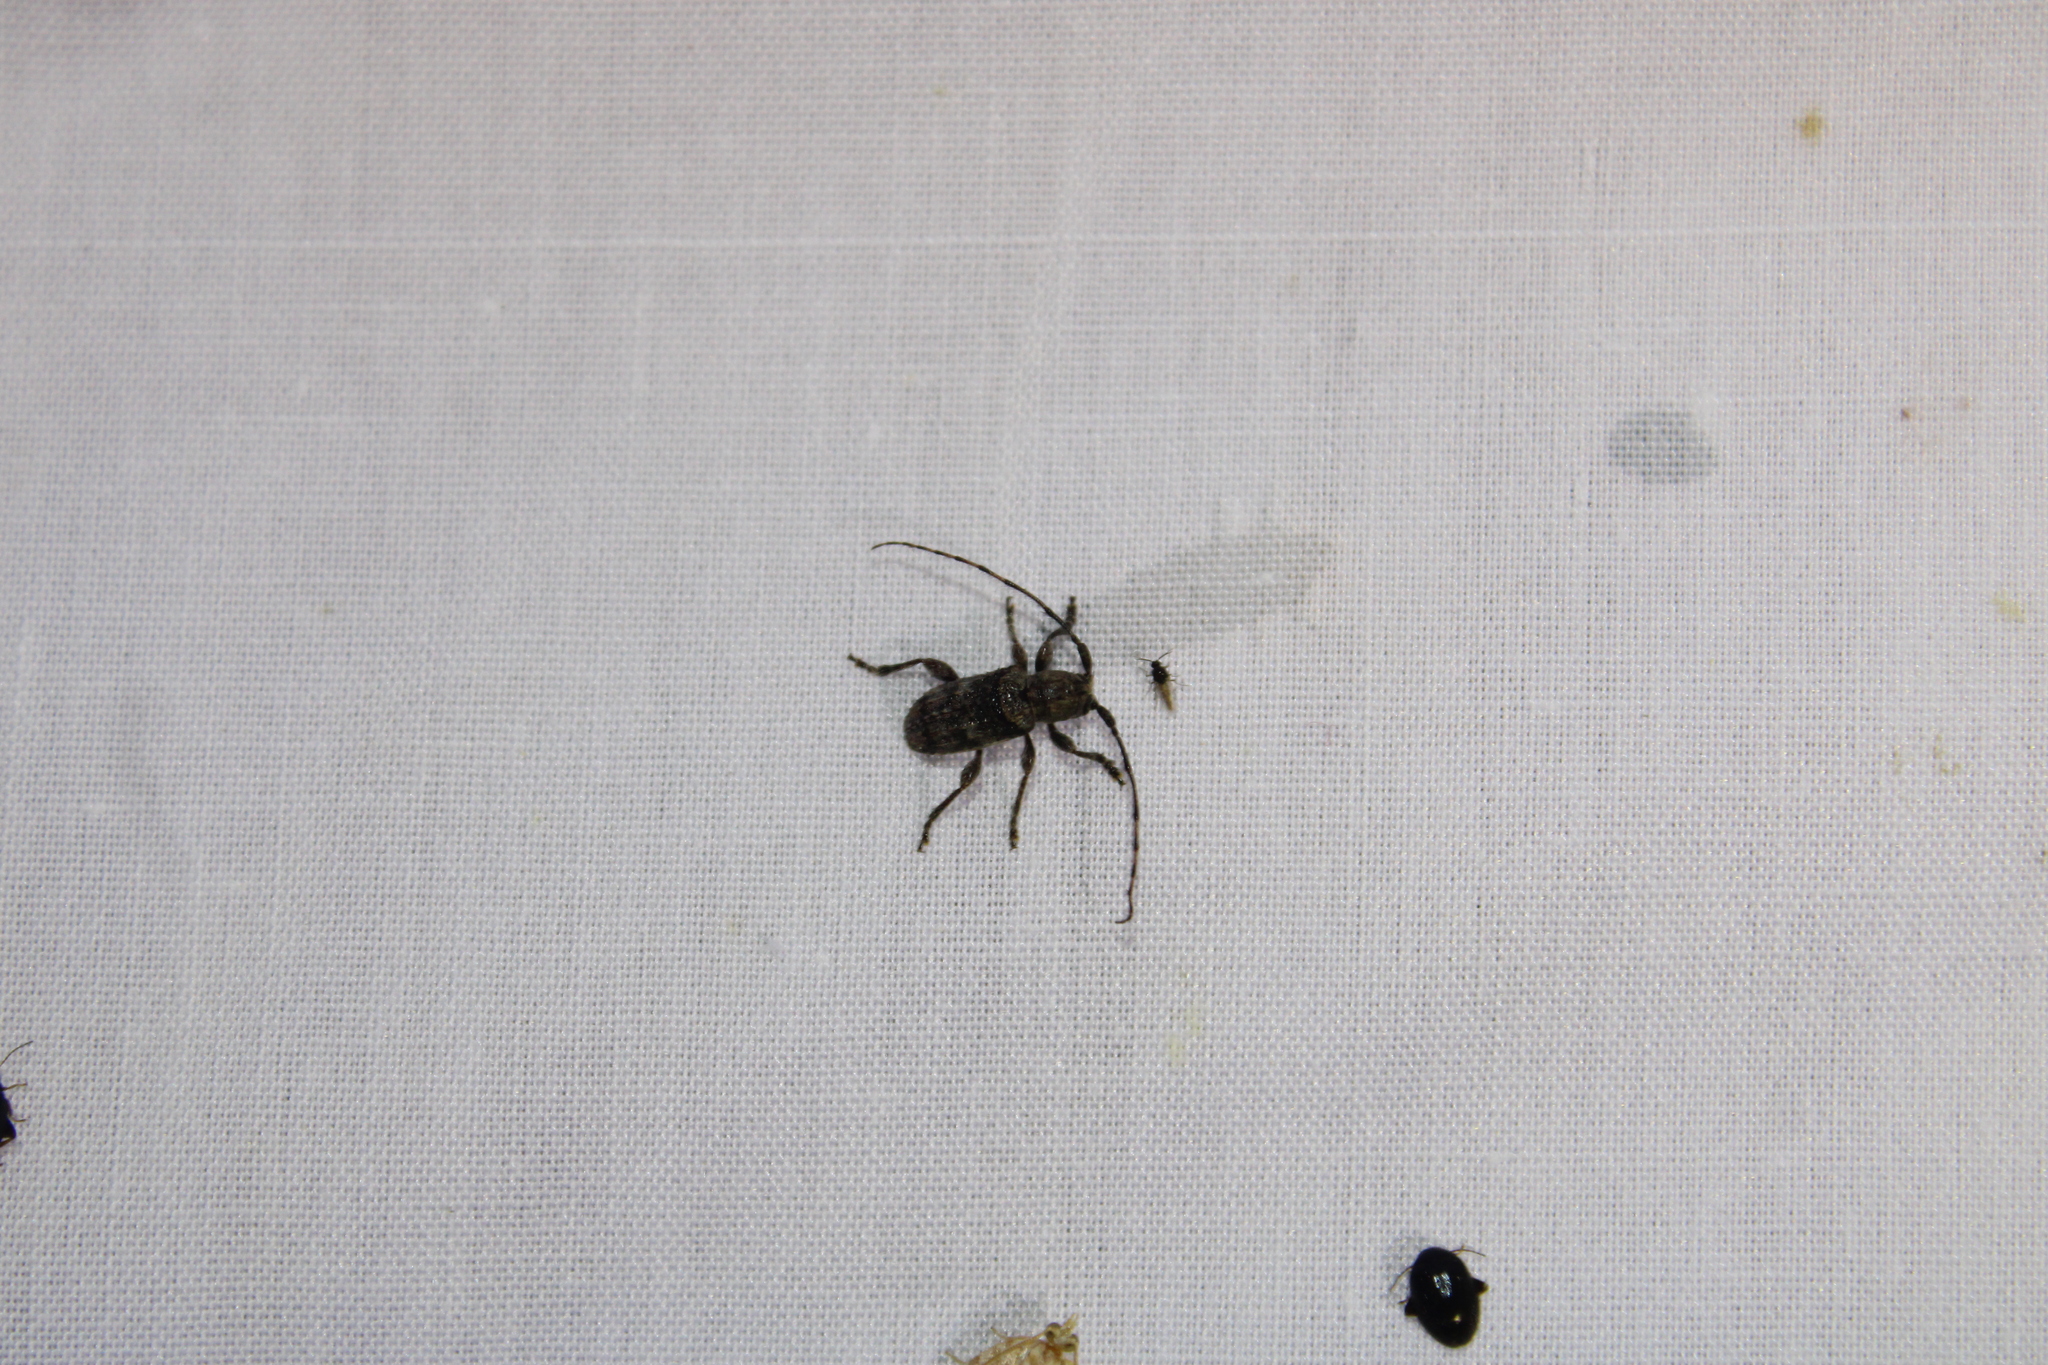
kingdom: Animalia
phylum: Arthropoda
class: Insecta
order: Coleoptera
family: Cerambycidae
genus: Ecyrus
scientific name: Ecyrus dasycerus
